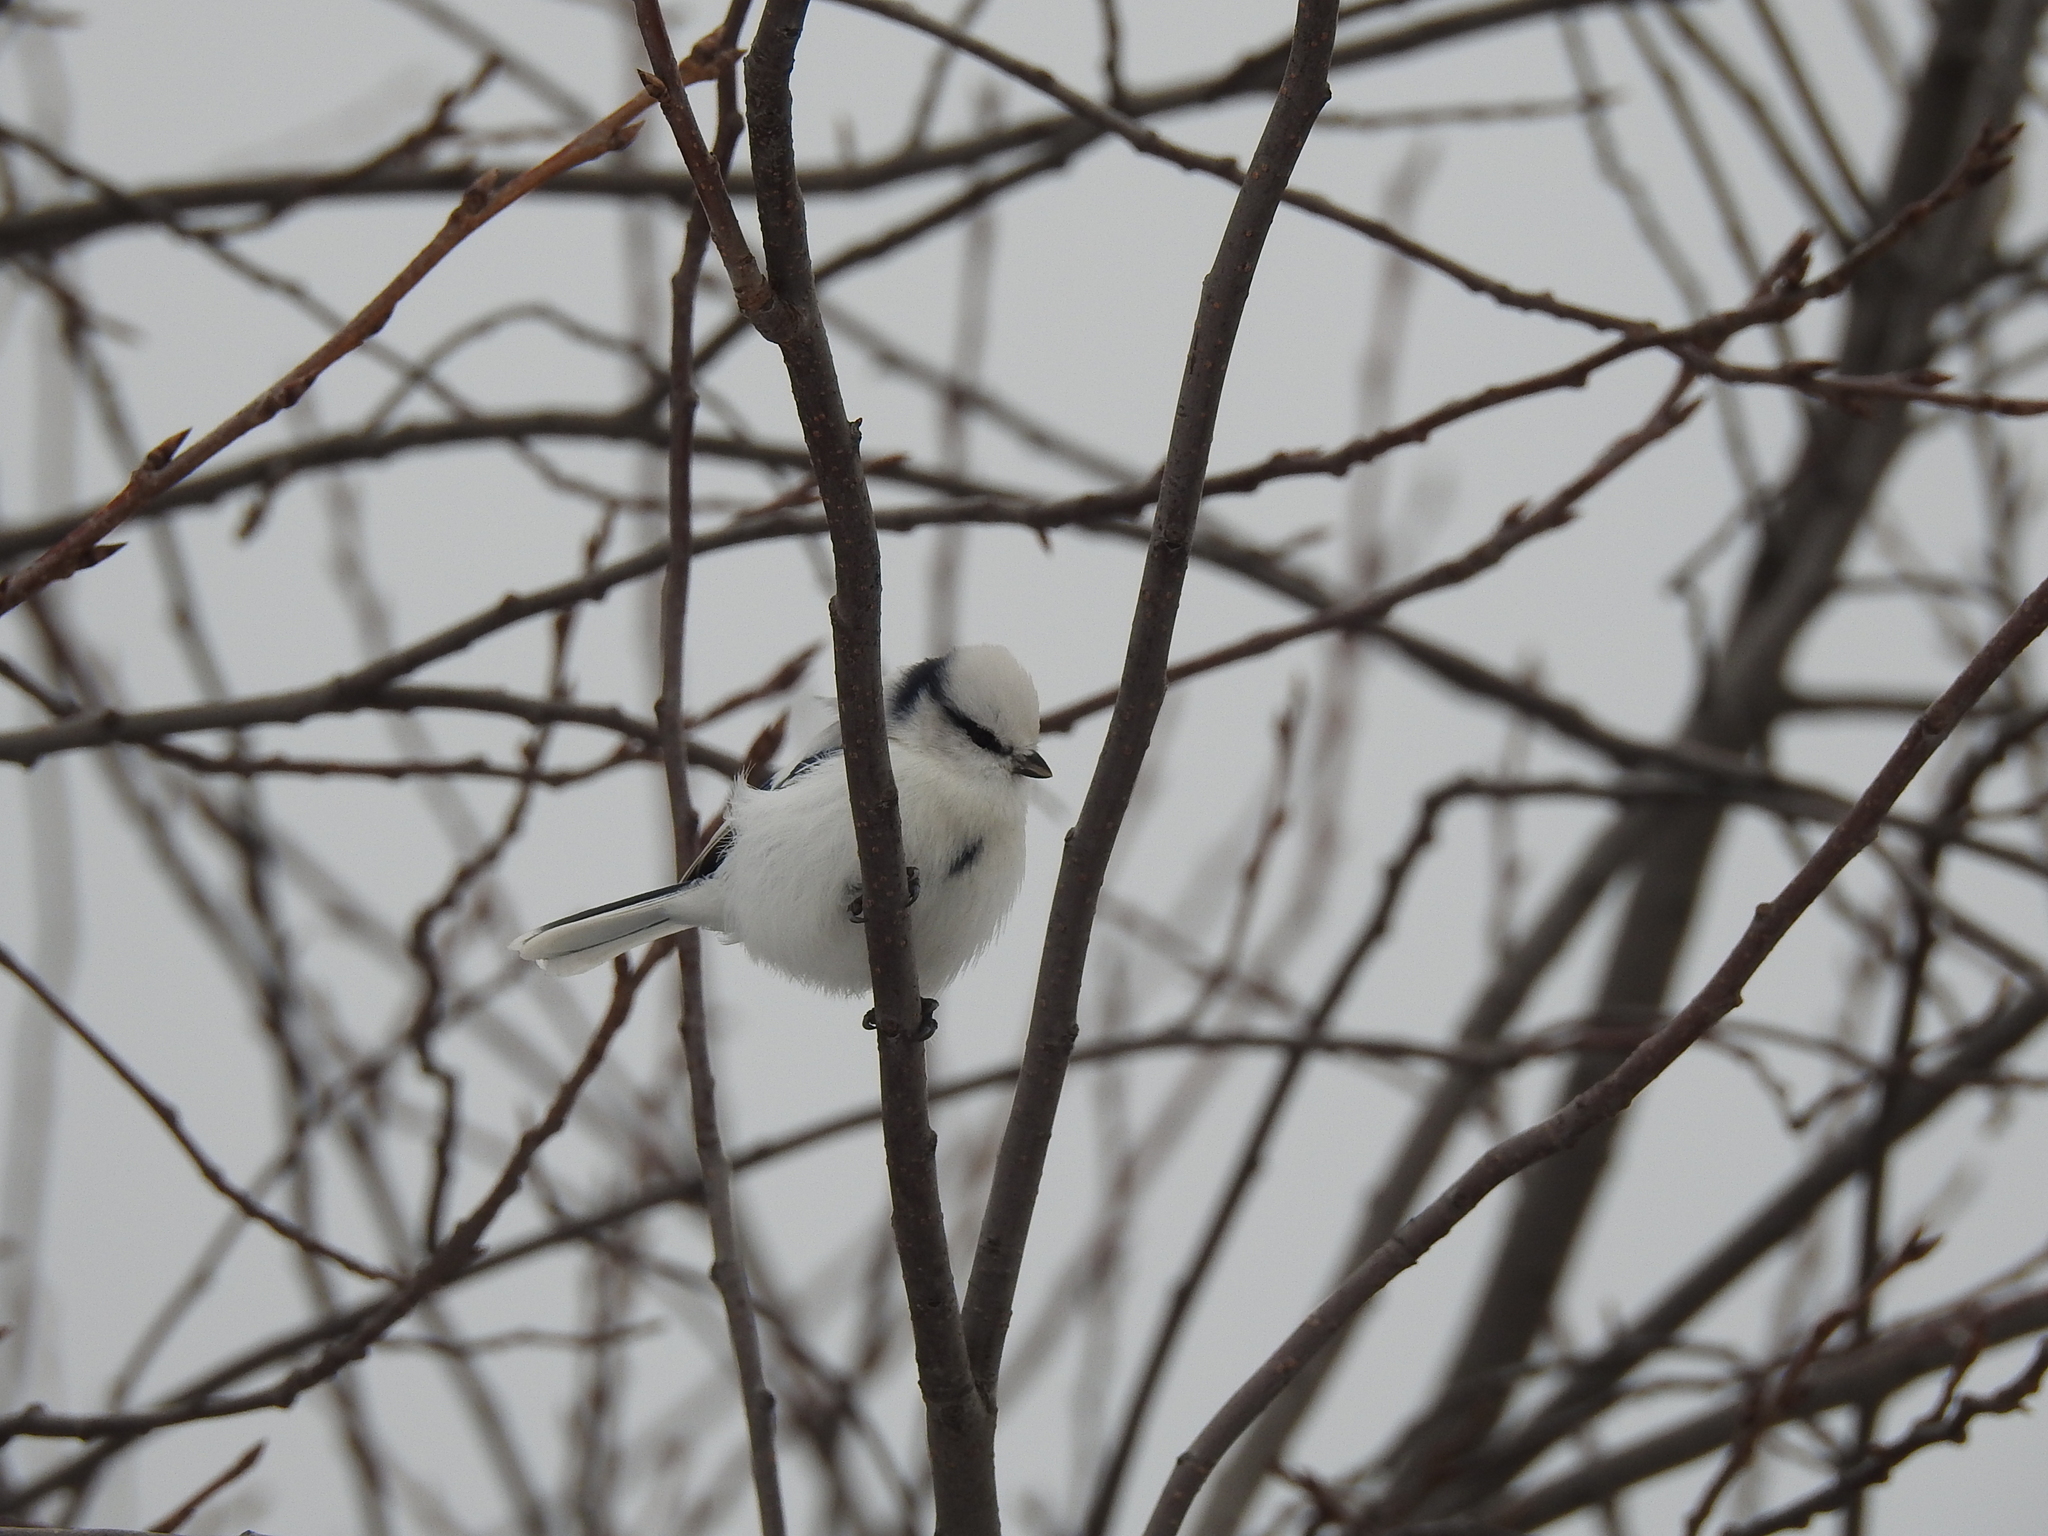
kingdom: Animalia
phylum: Chordata
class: Aves
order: Passeriformes
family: Paridae
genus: Cyanistes
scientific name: Cyanistes cyanus
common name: Azure tit
